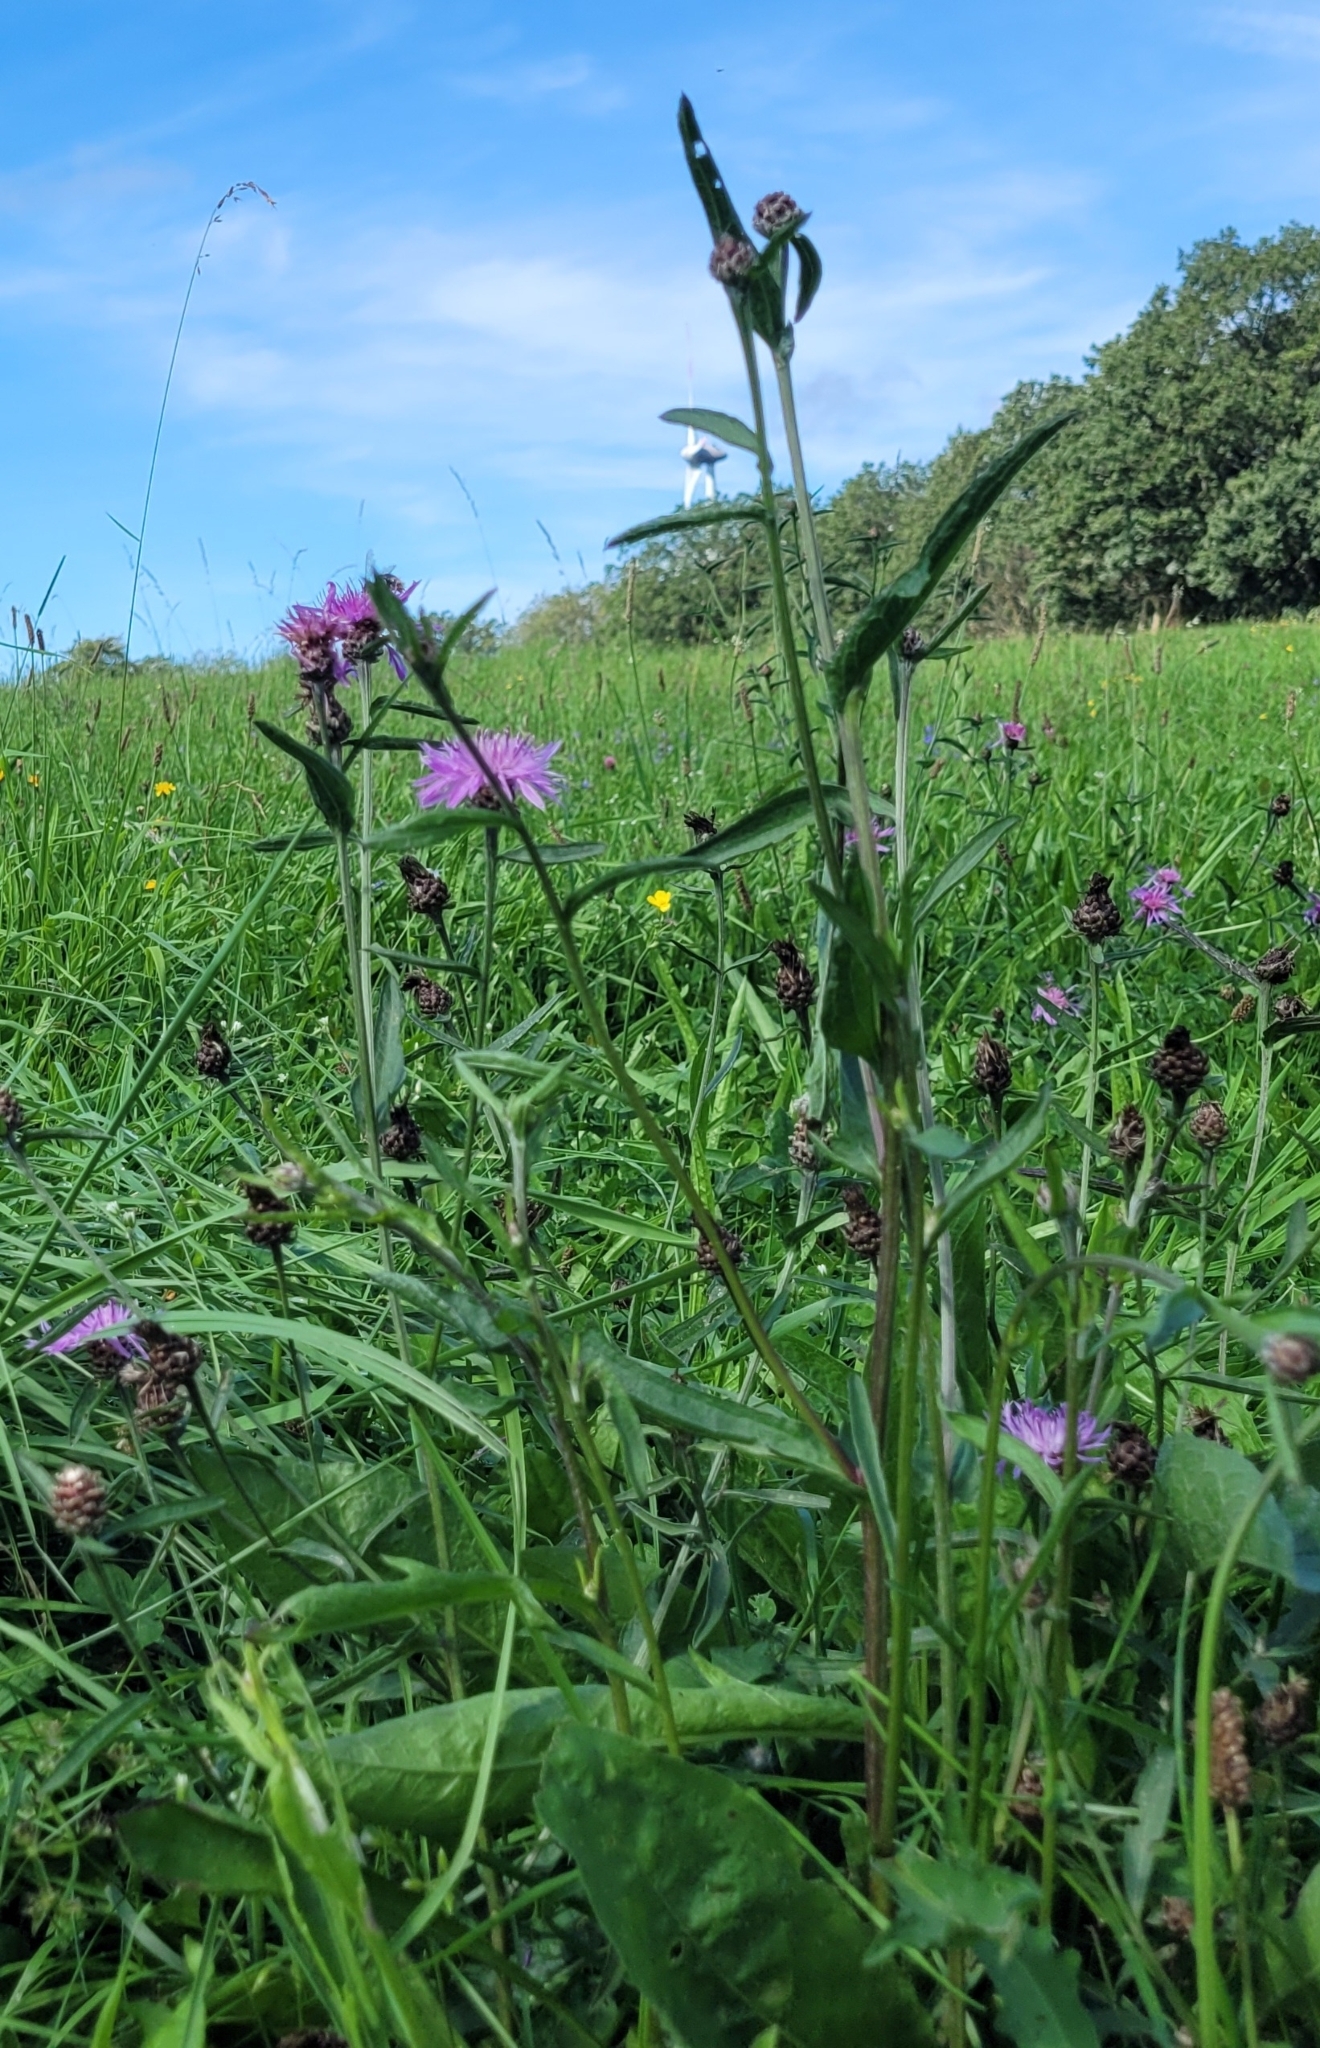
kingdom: Plantae
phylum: Tracheophyta
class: Magnoliopsida
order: Asterales
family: Asteraceae
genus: Centaurea
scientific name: Centaurea jacea
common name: Brown knapweed
